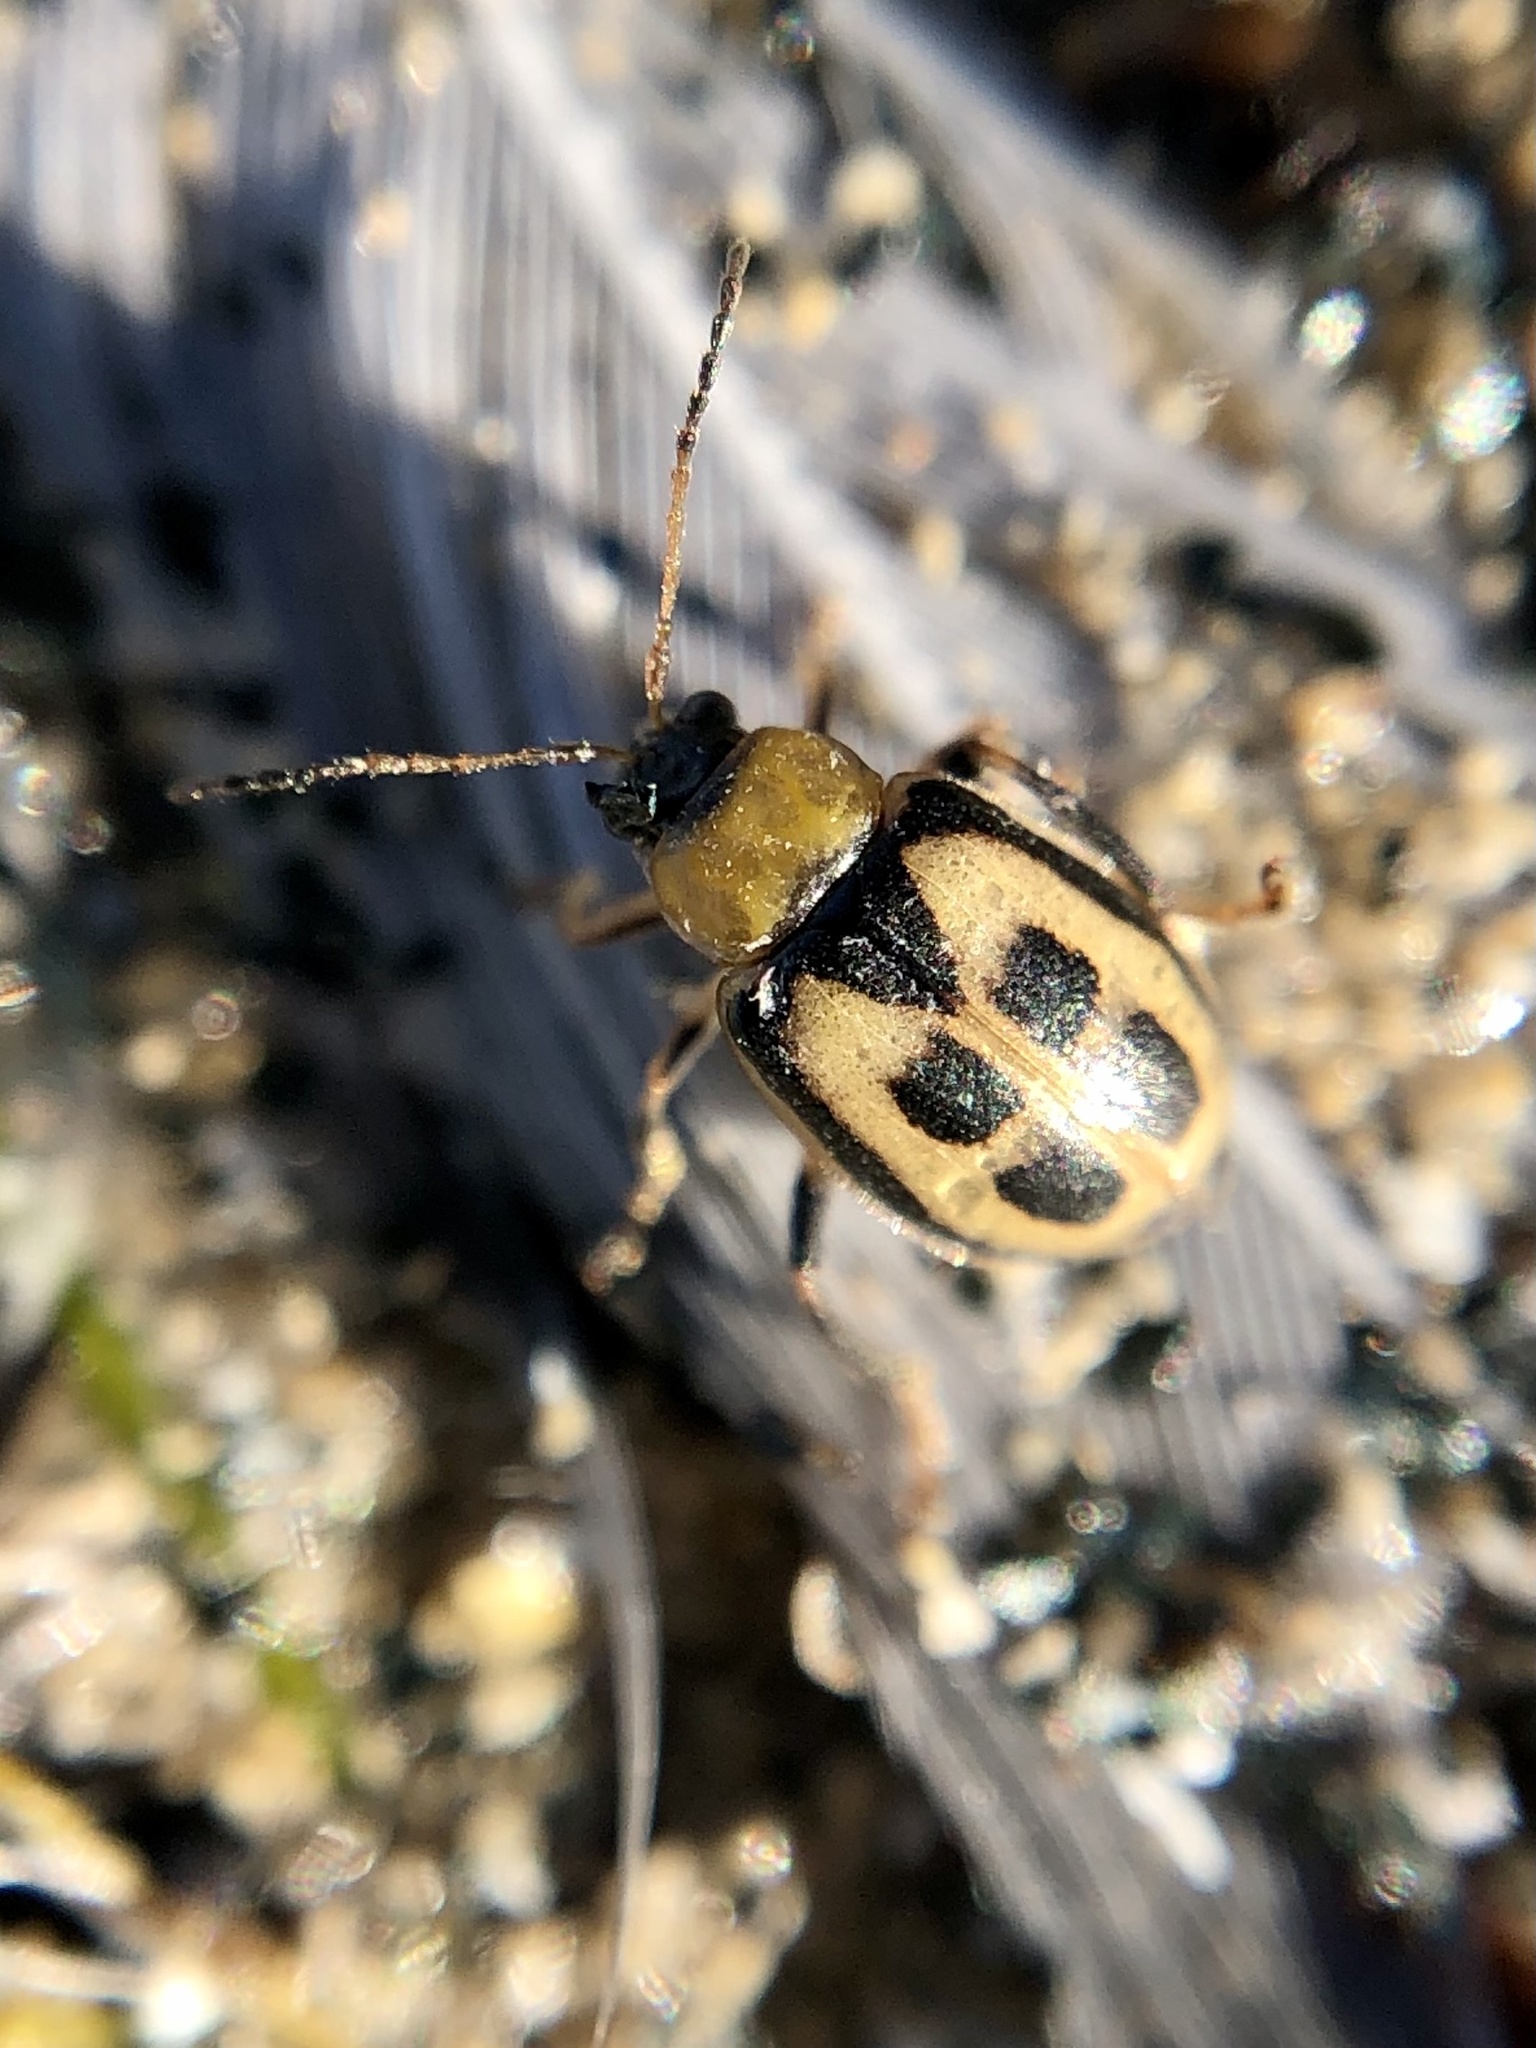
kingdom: Animalia
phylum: Arthropoda
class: Insecta
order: Coleoptera
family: Chrysomelidae
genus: Cerotoma
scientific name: Cerotoma trifurcata
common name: Bean leaf beetle
